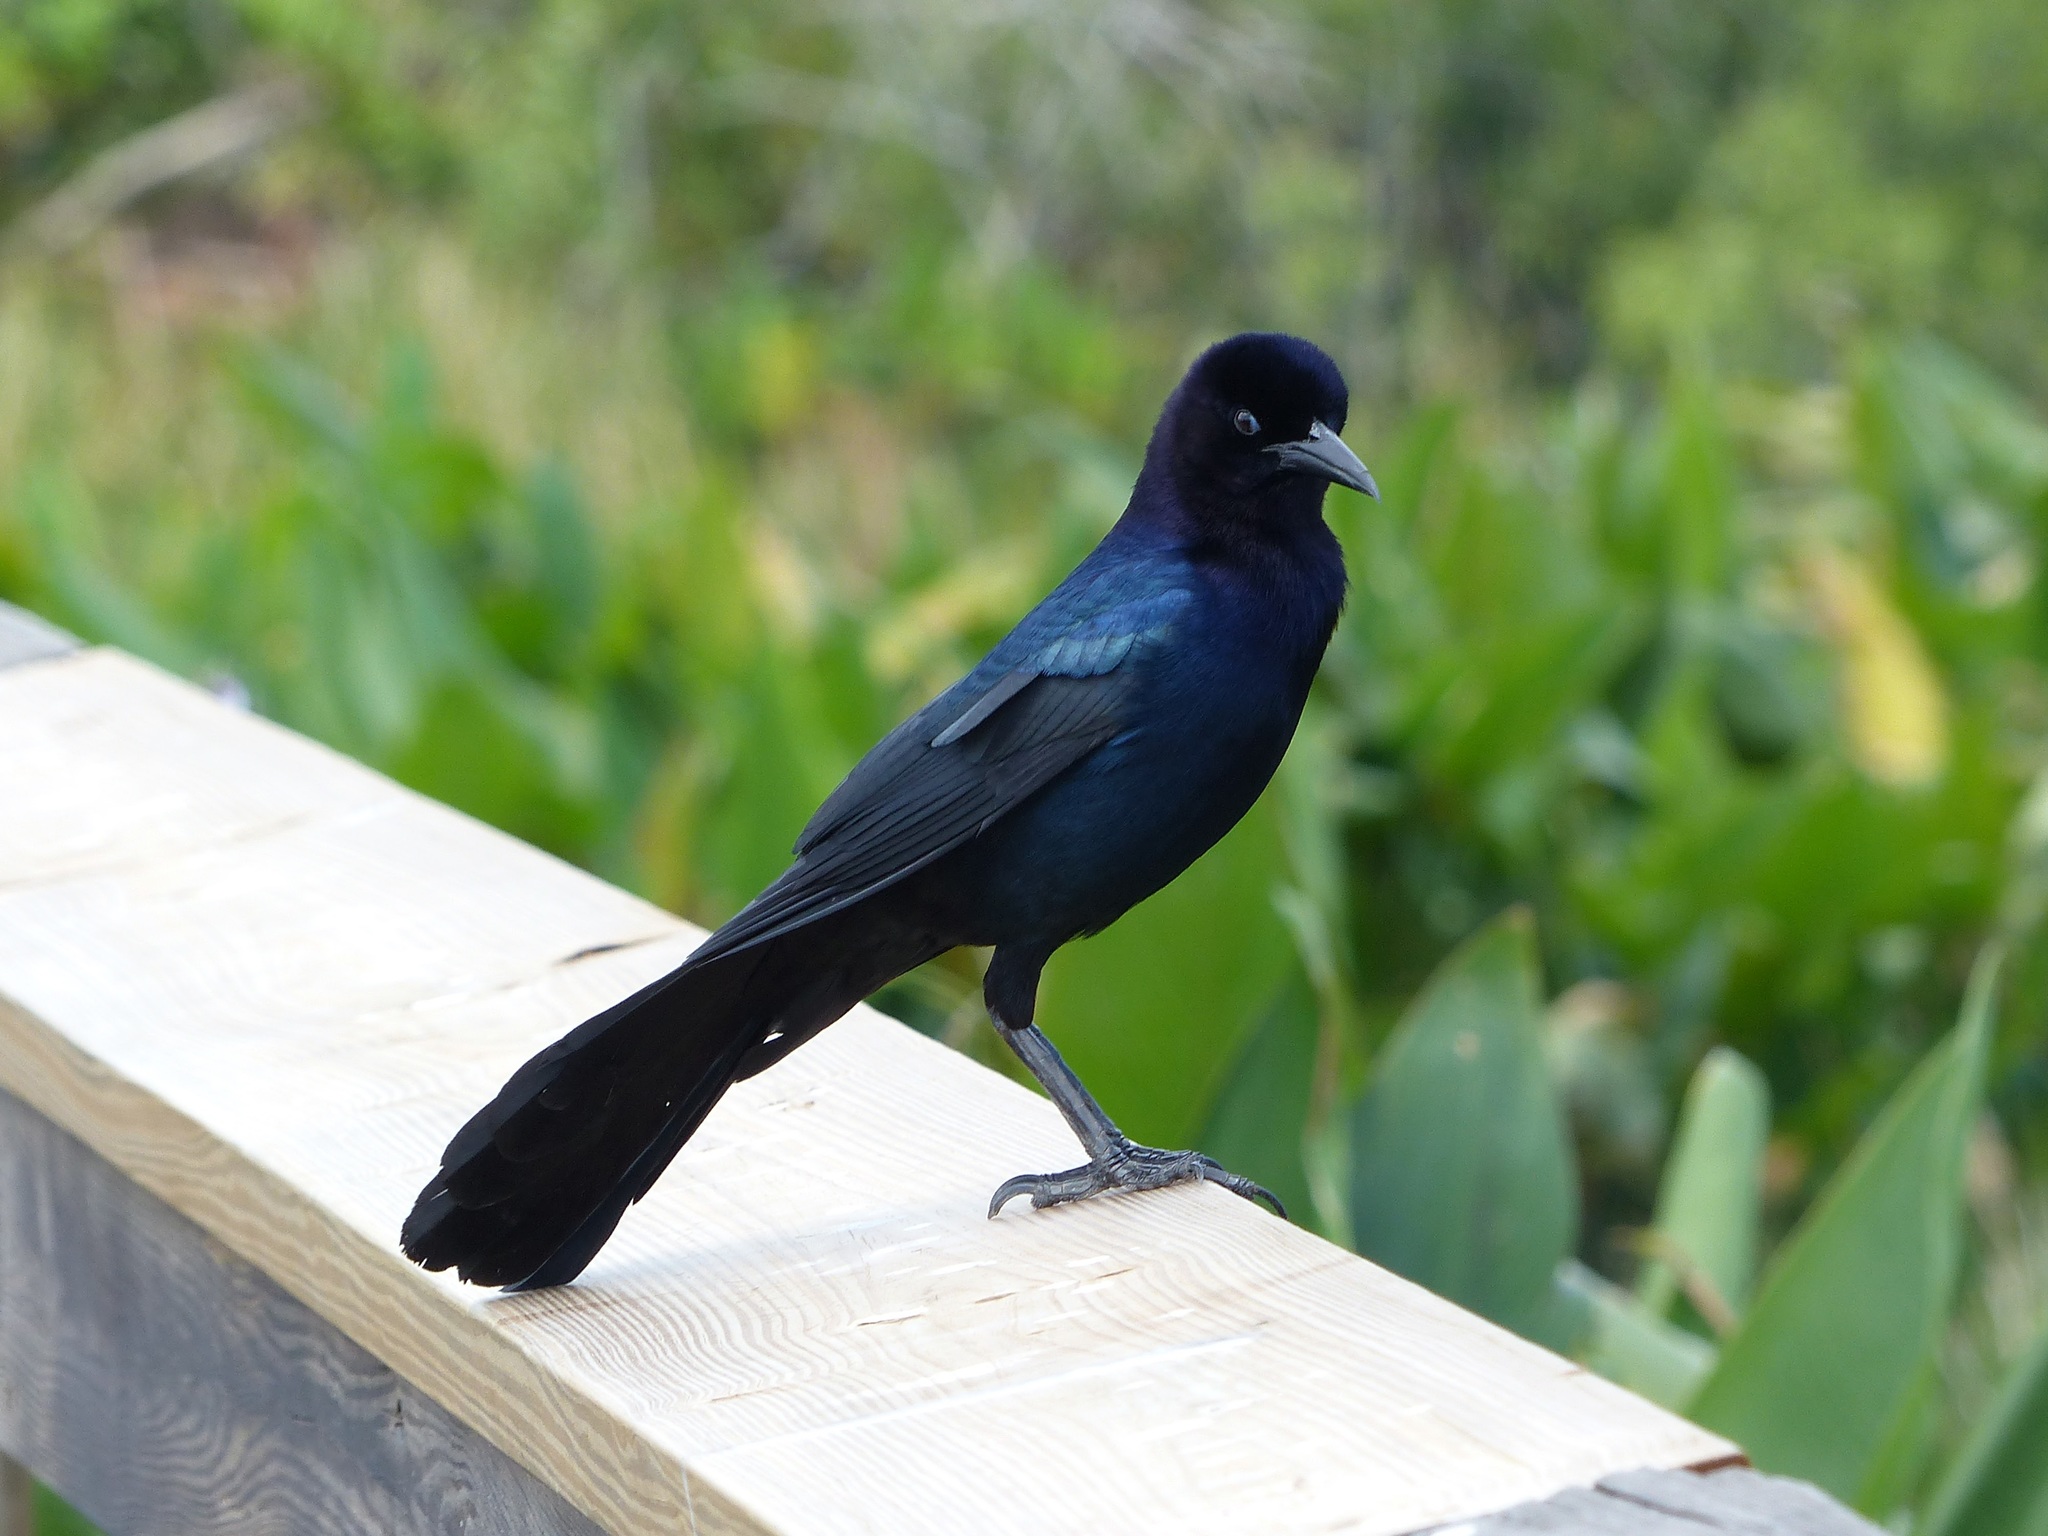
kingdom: Animalia
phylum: Chordata
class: Aves
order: Passeriformes
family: Icteridae
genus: Quiscalus
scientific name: Quiscalus major
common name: Boat-tailed grackle
